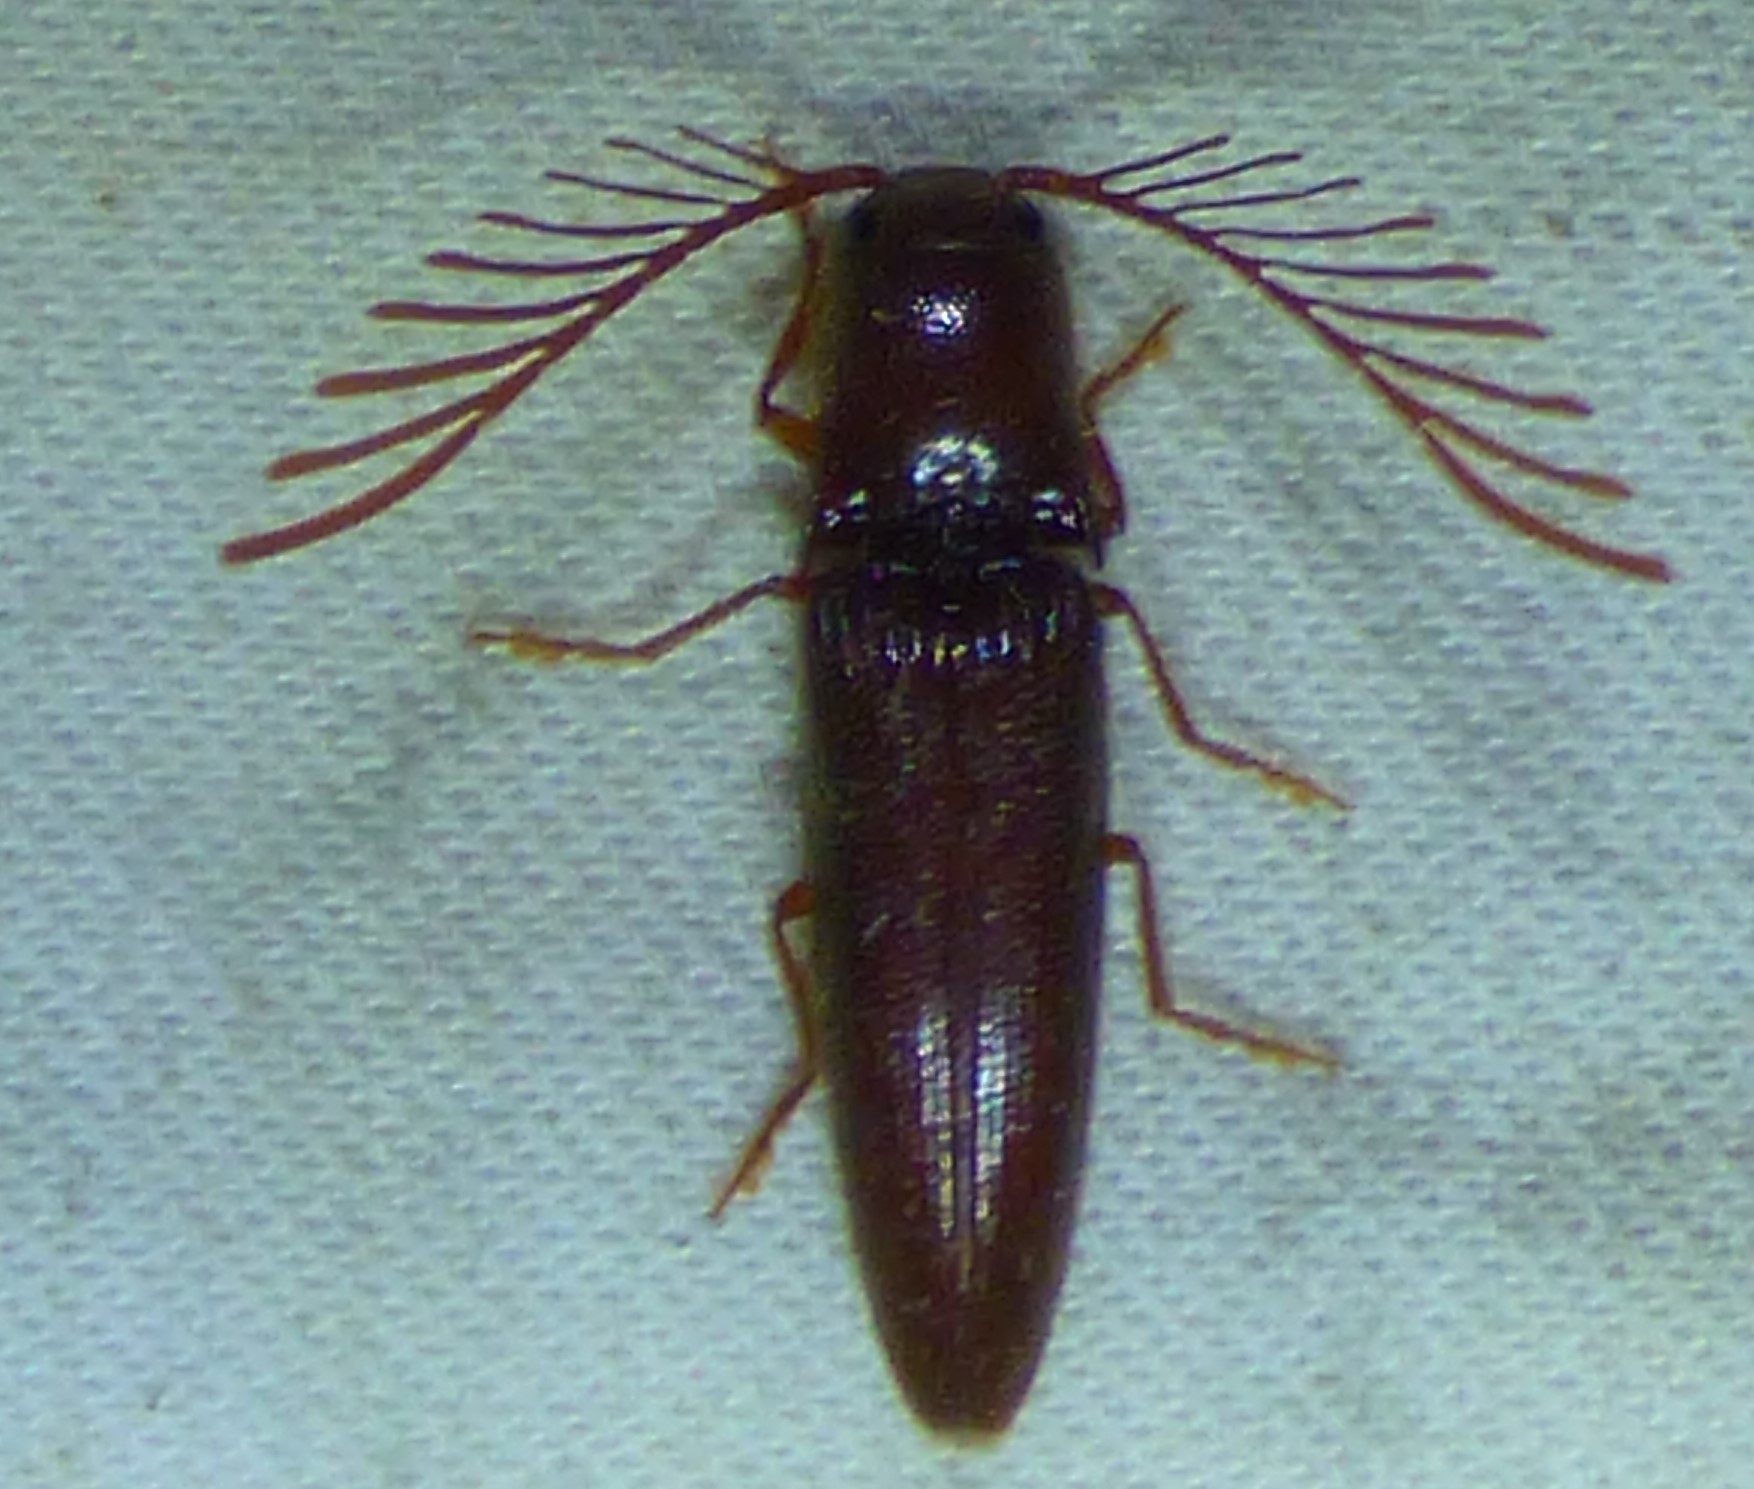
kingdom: Animalia
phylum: Arthropoda
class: Insecta
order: Coleoptera
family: Elateridae
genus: Dicrepidius
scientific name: Dicrepidius palmatus
